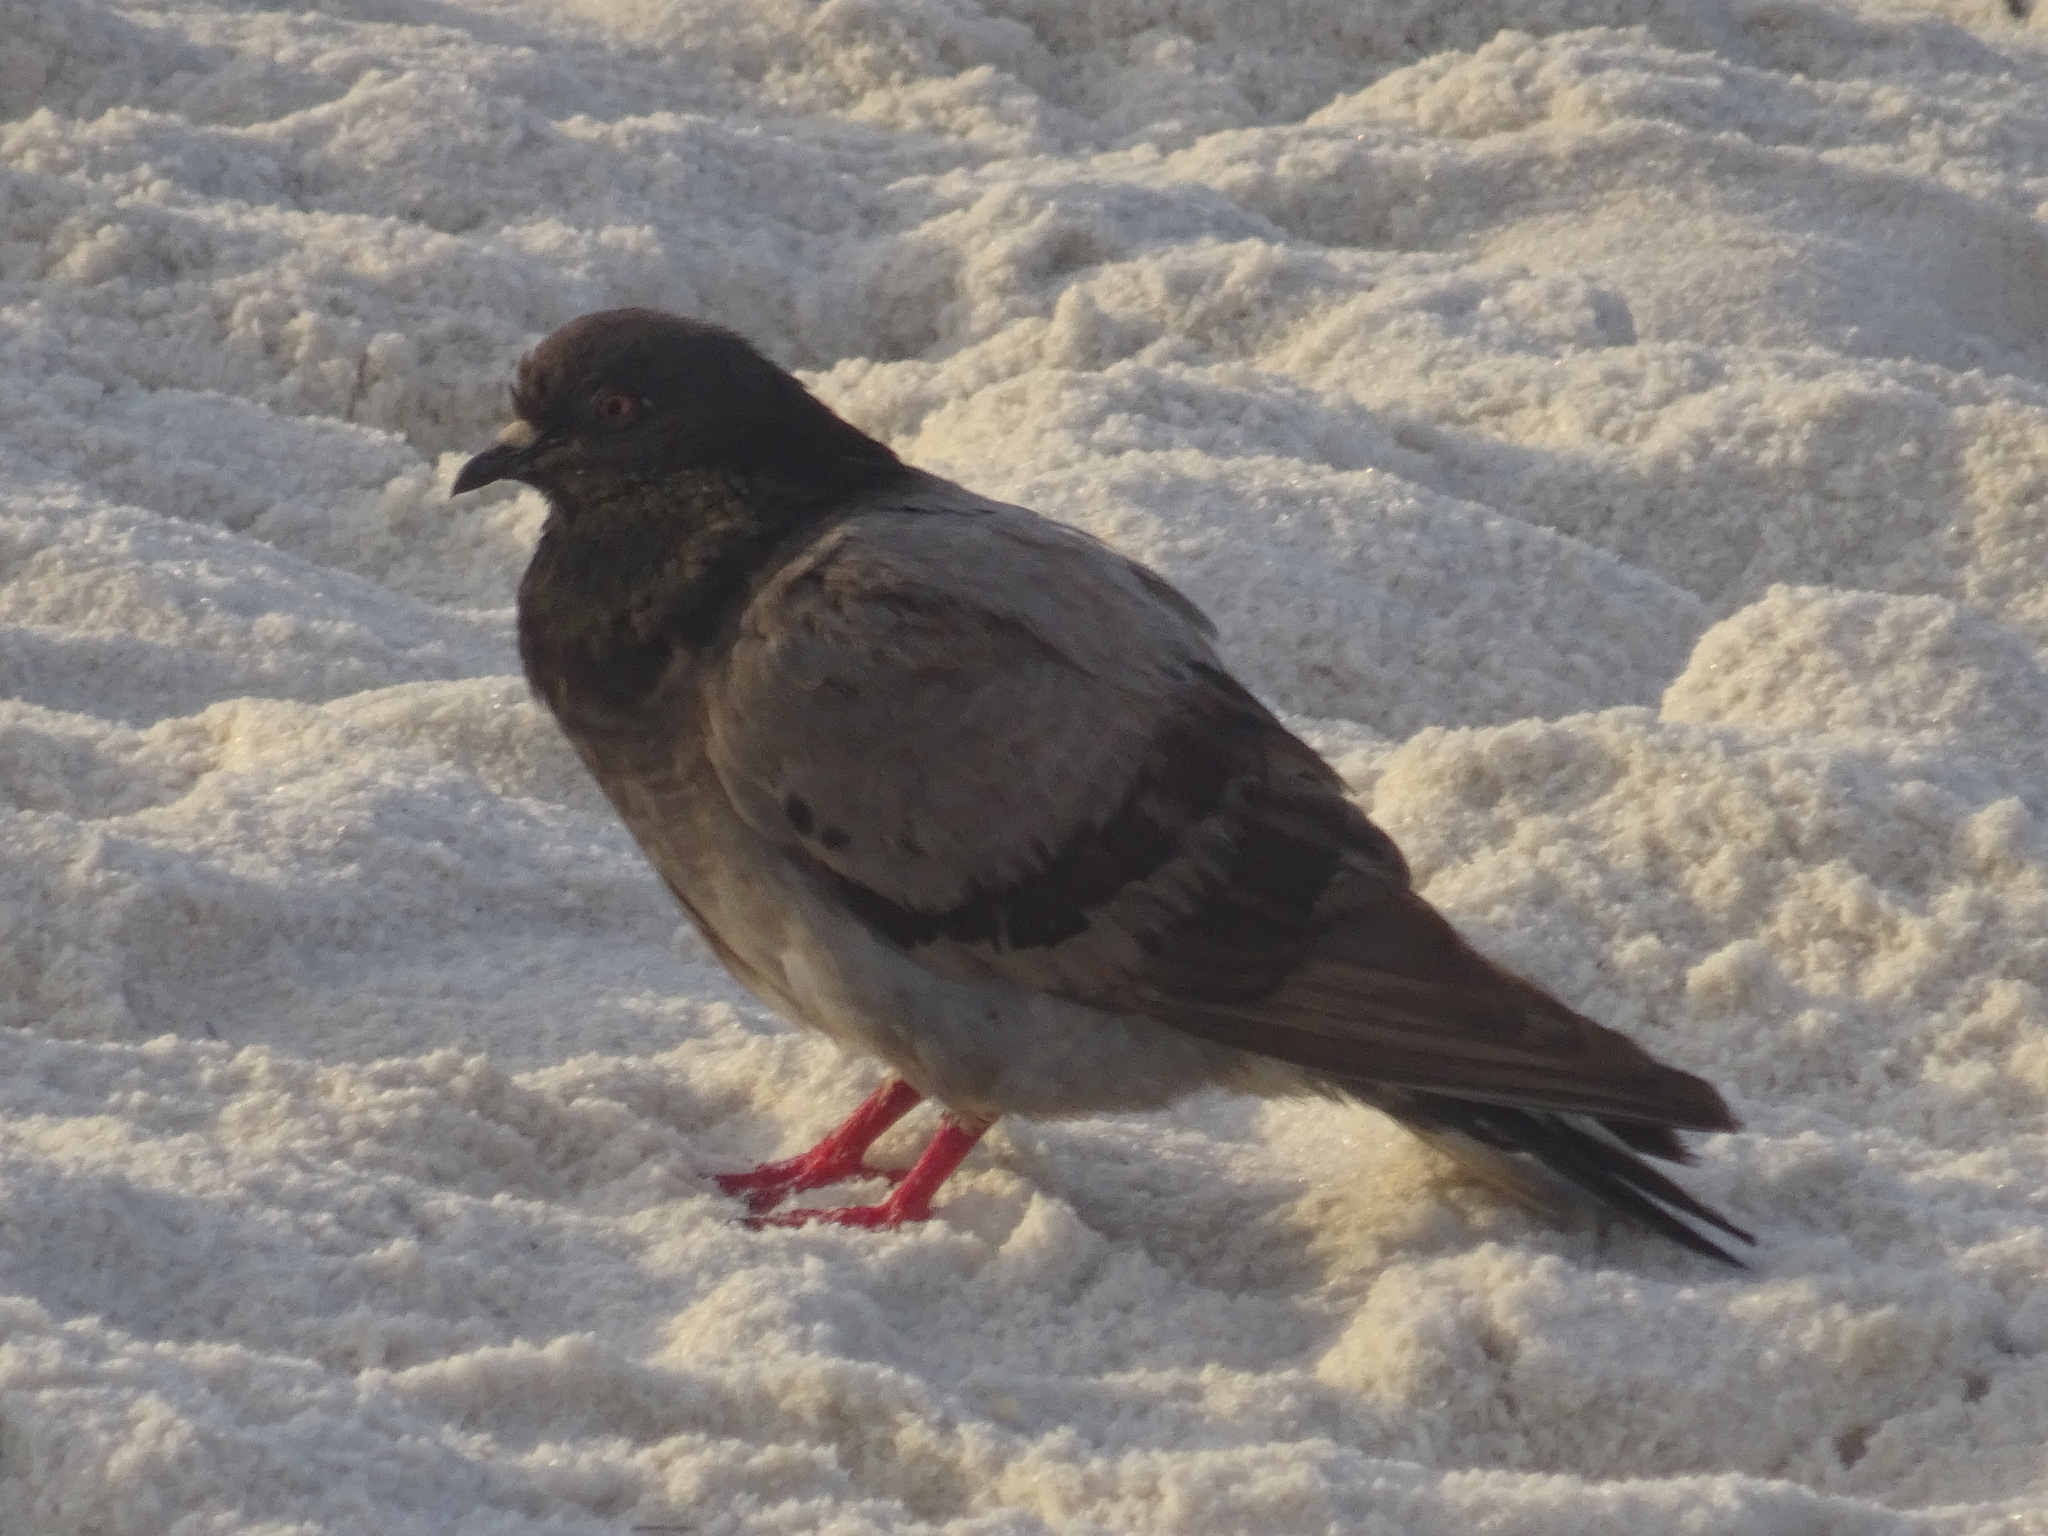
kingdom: Animalia
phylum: Chordata
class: Aves
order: Columbiformes
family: Columbidae
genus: Columba
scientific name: Columba livia
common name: Rock pigeon
